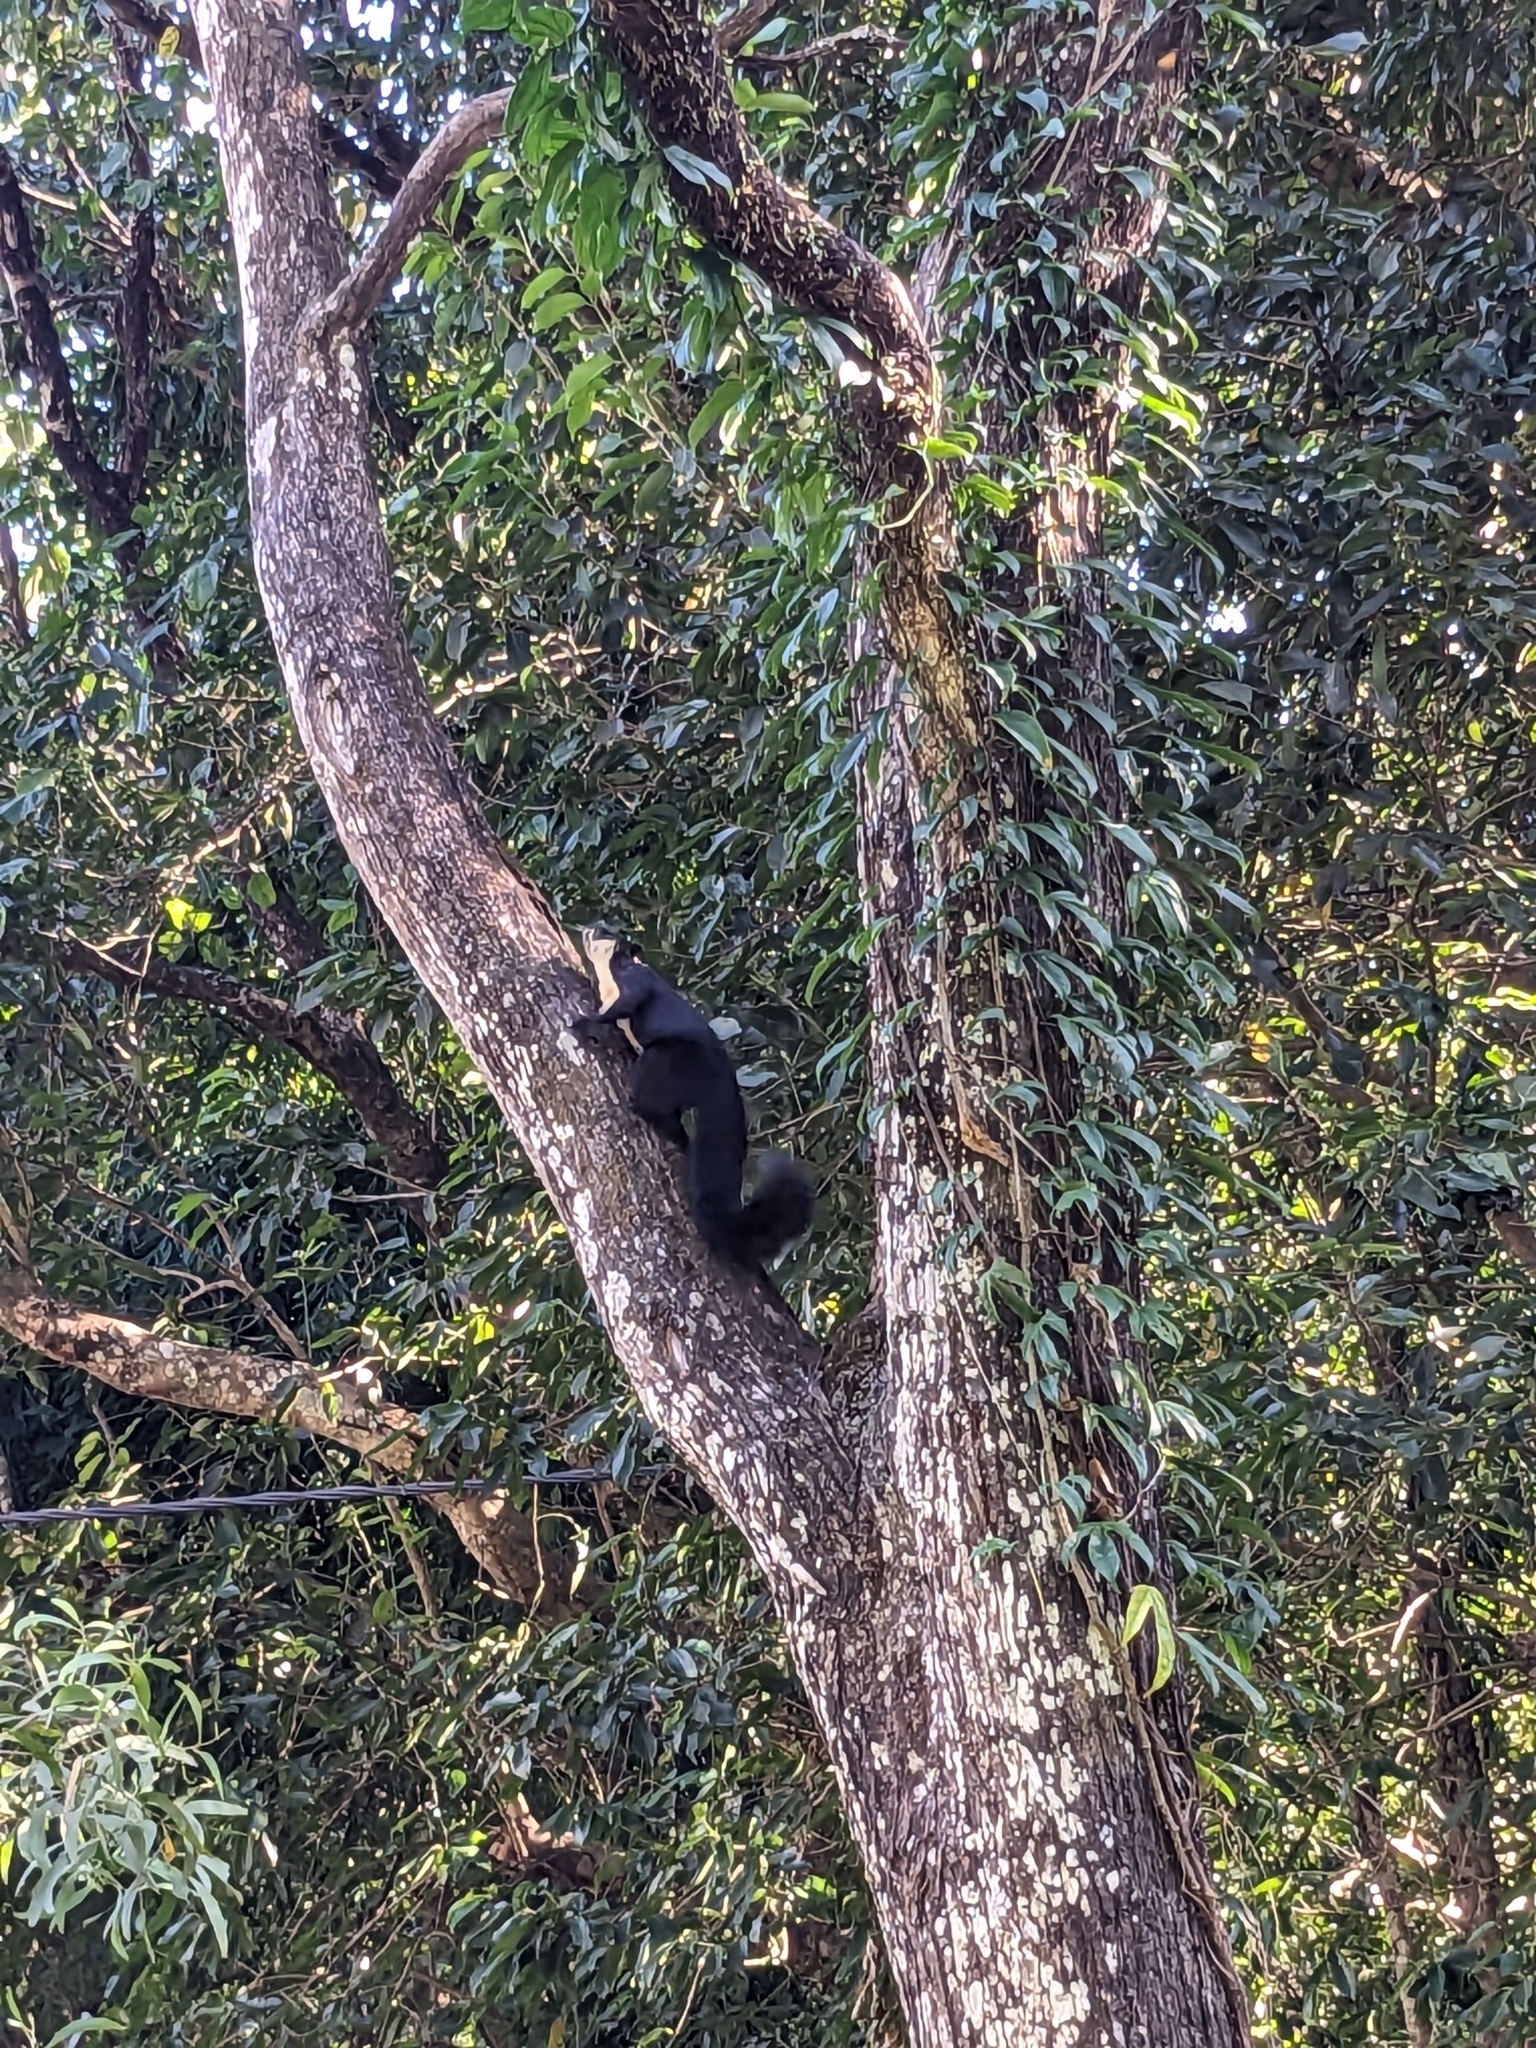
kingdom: Animalia
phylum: Chordata
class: Mammalia
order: Rodentia
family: Sciuridae
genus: Ratufa
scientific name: Ratufa bicolor
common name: Black giant squirrel
